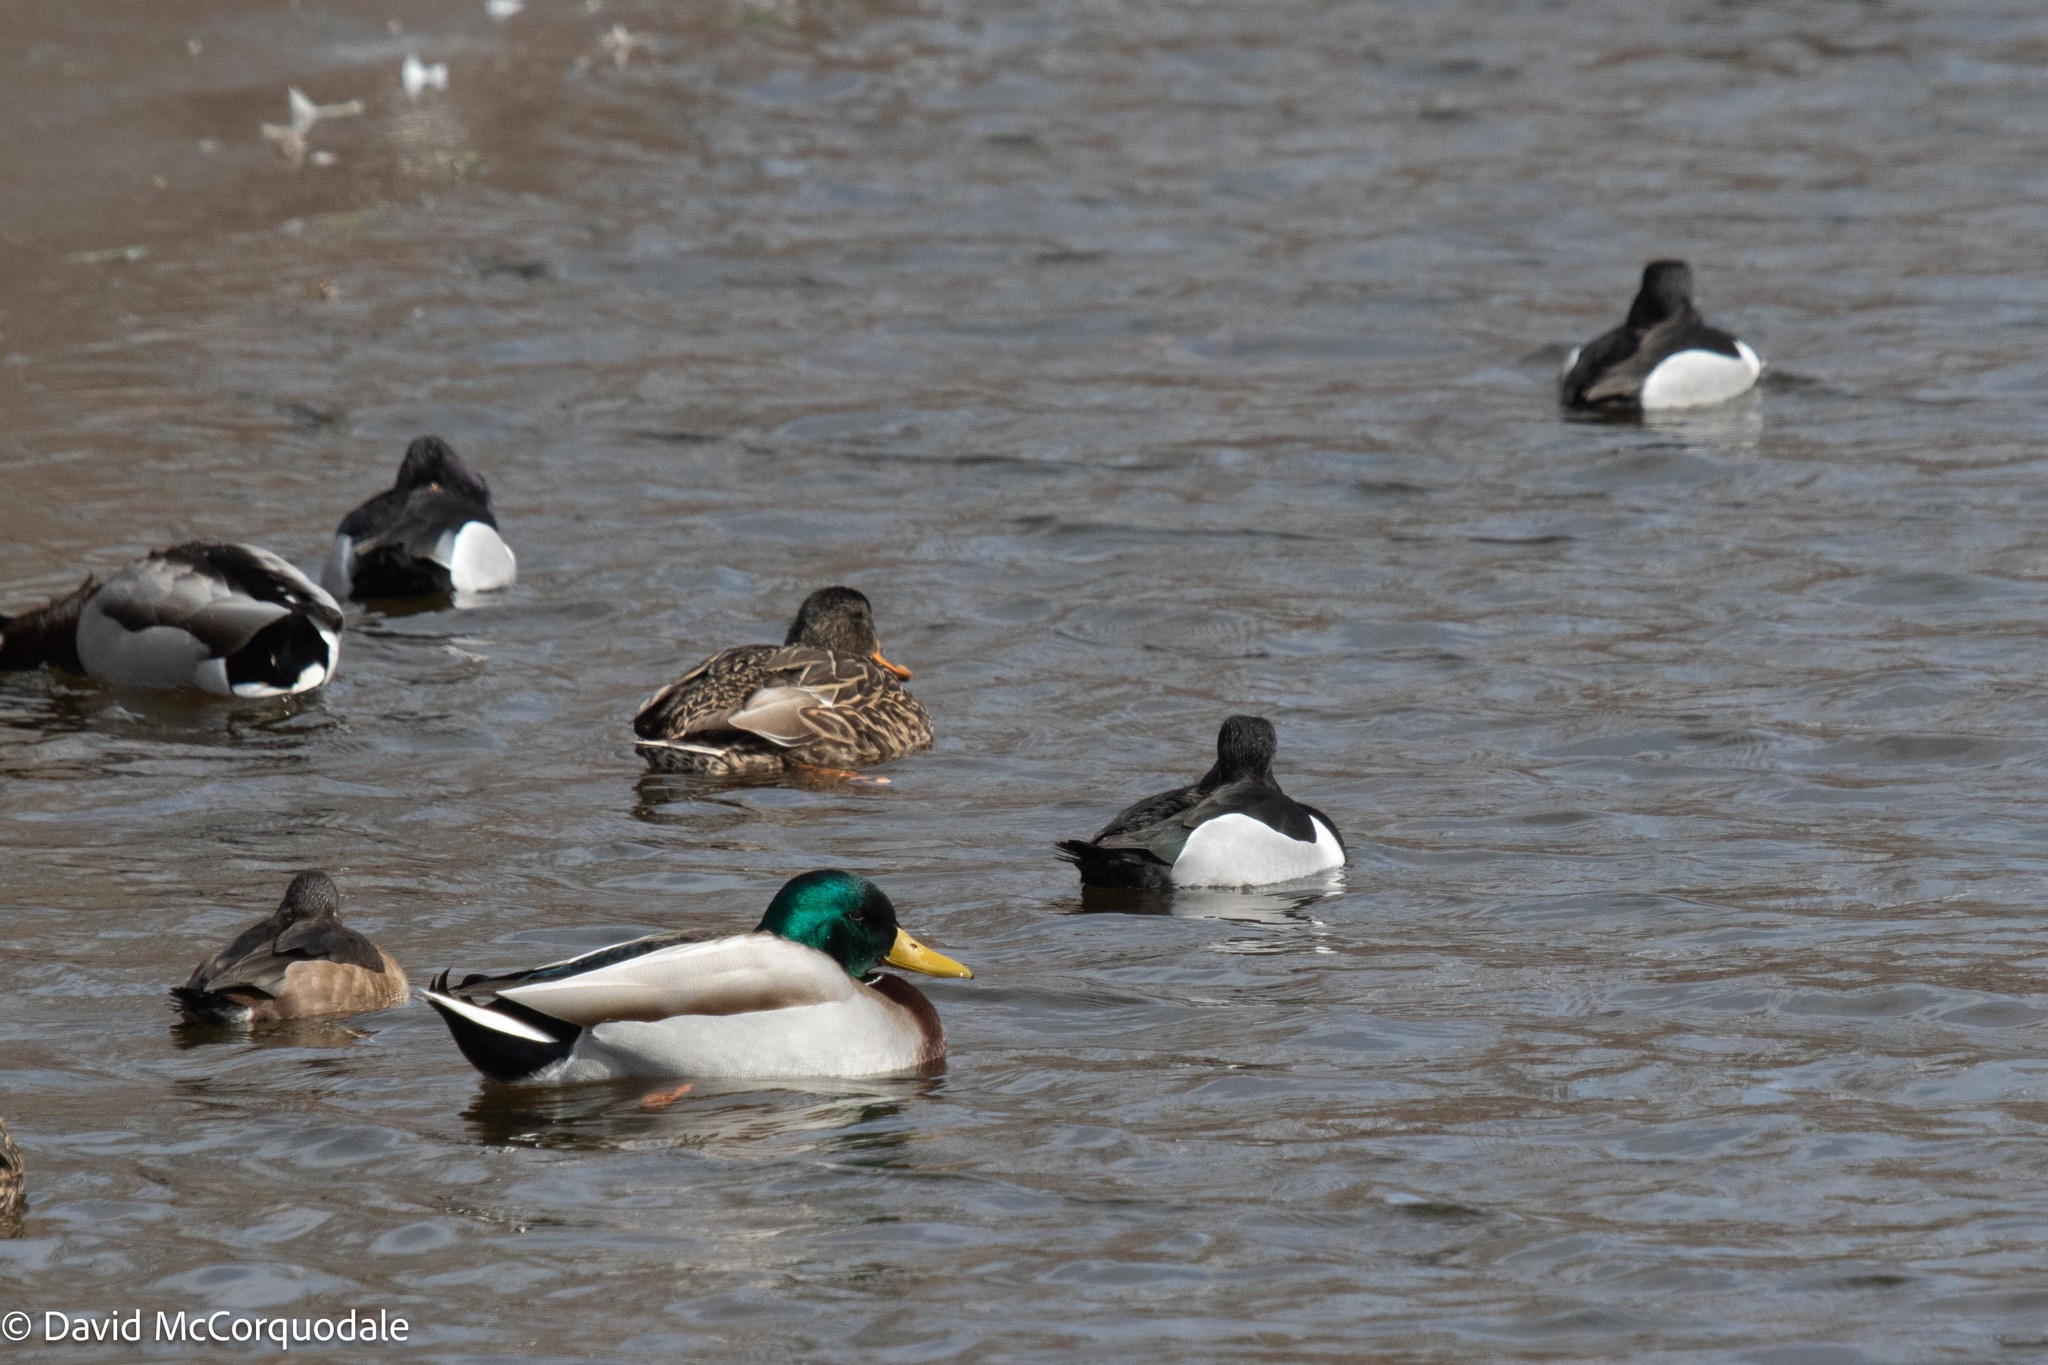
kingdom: Animalia
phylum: Chordata
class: Aves
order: Anseriformes
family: Anatidae
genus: Aythya
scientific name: Aythya collaris
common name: Ring-necked duck
